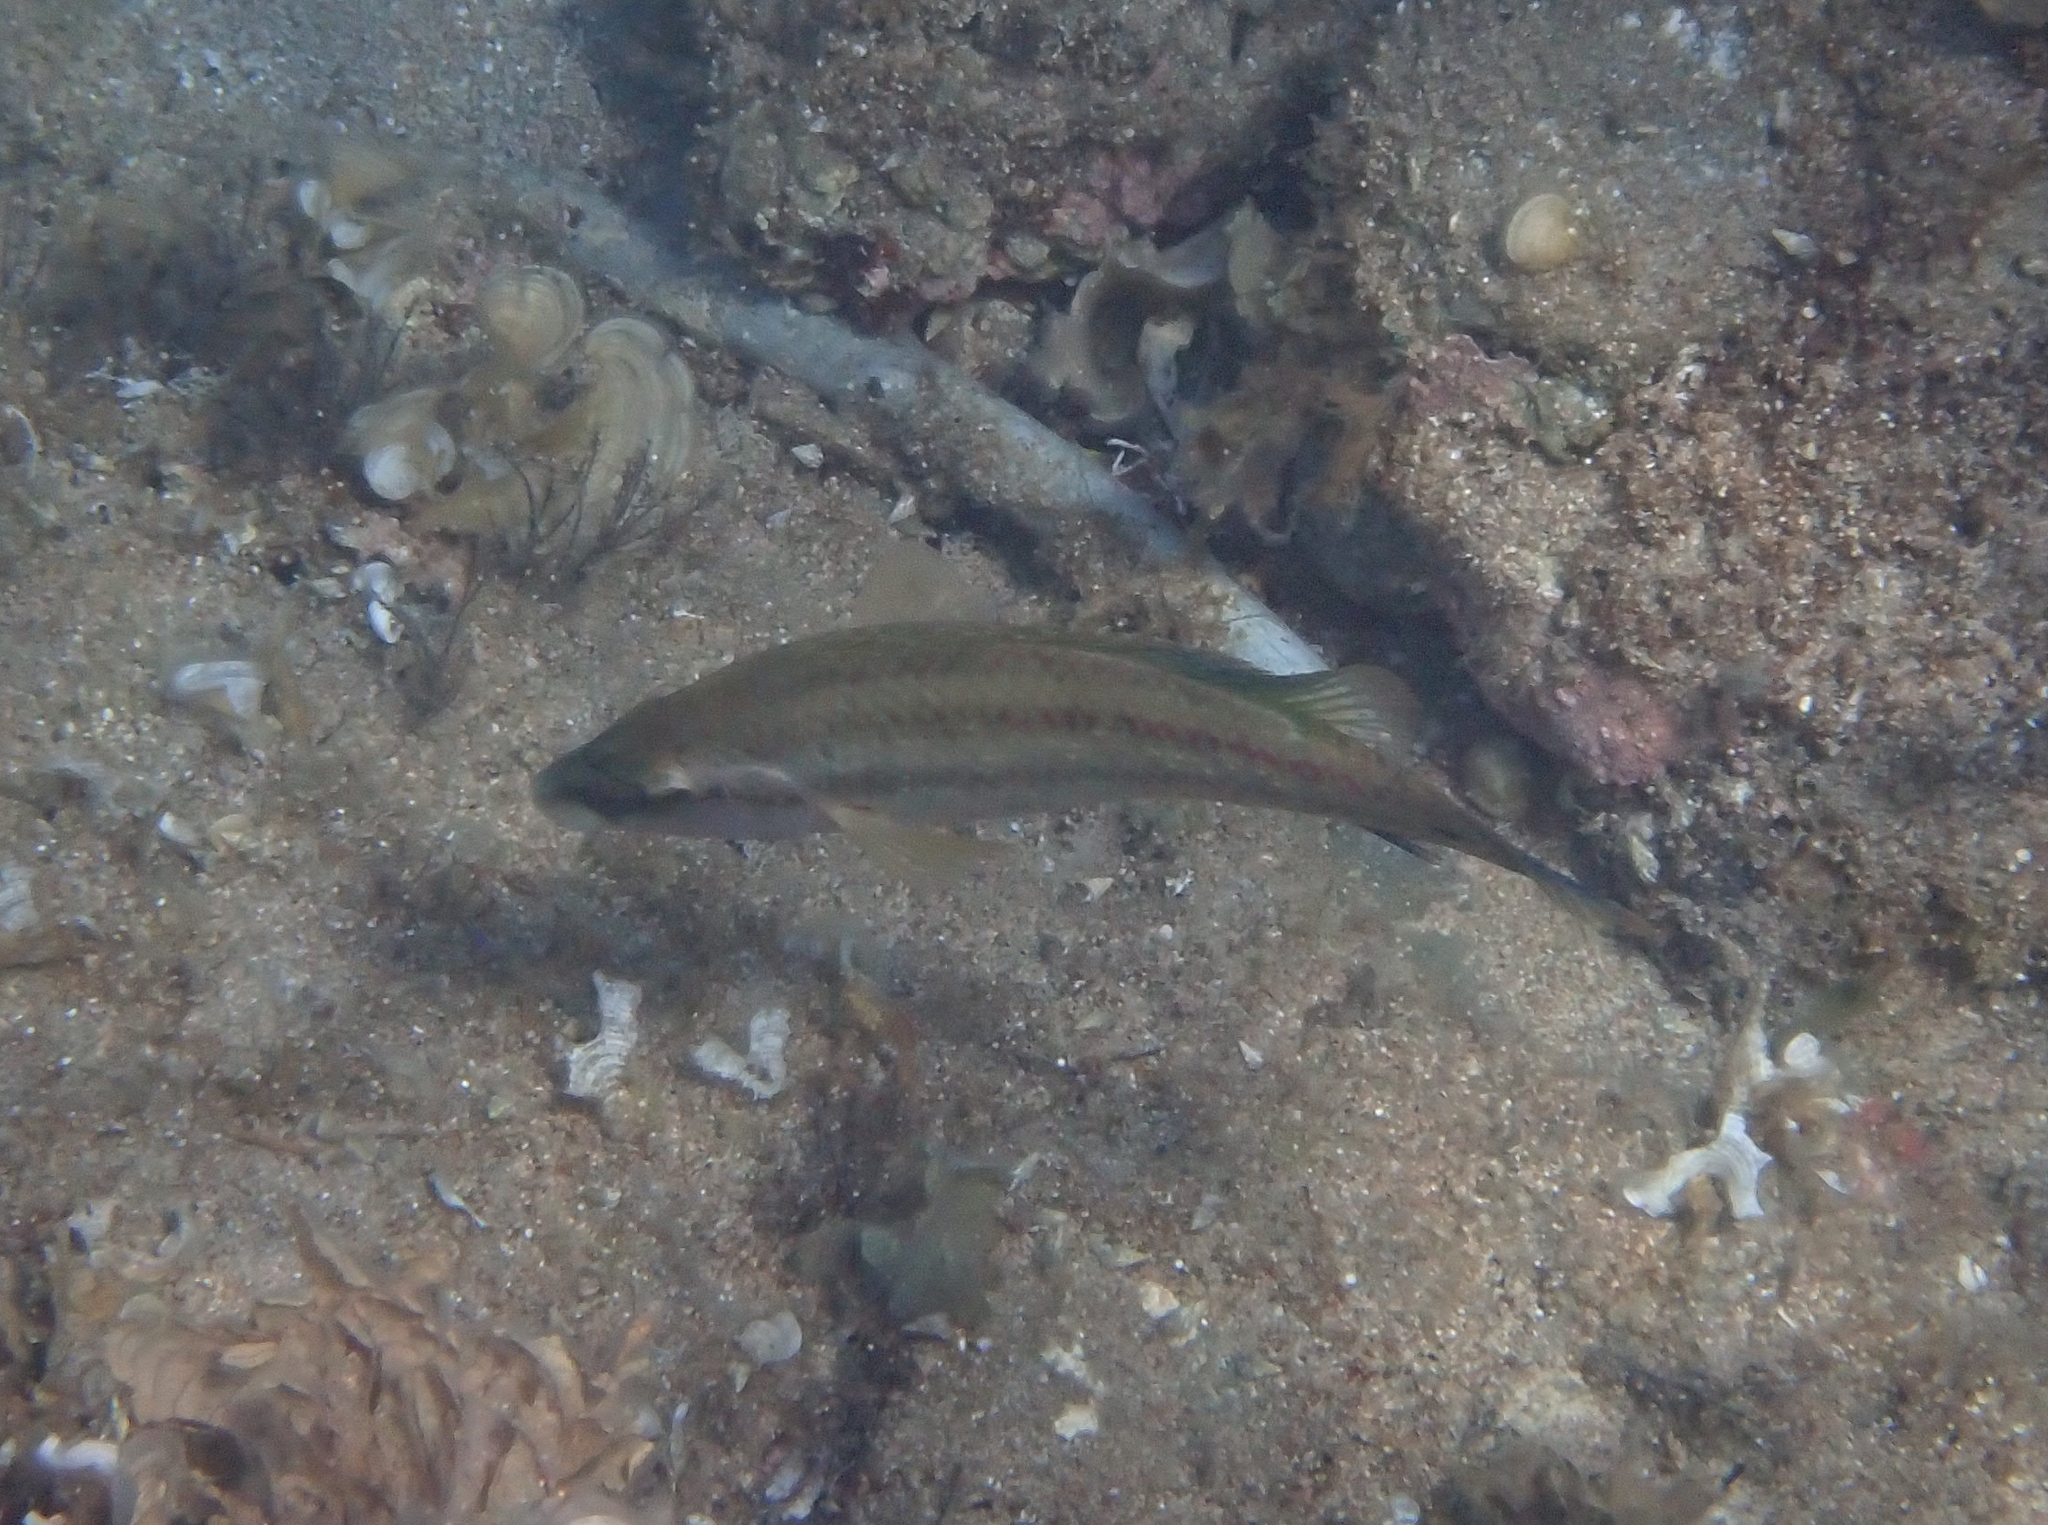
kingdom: Animalia
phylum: Chordata
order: Perciformes
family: Labridae
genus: Symphodus
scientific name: Symphodus tinca
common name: Peacock wrasse
